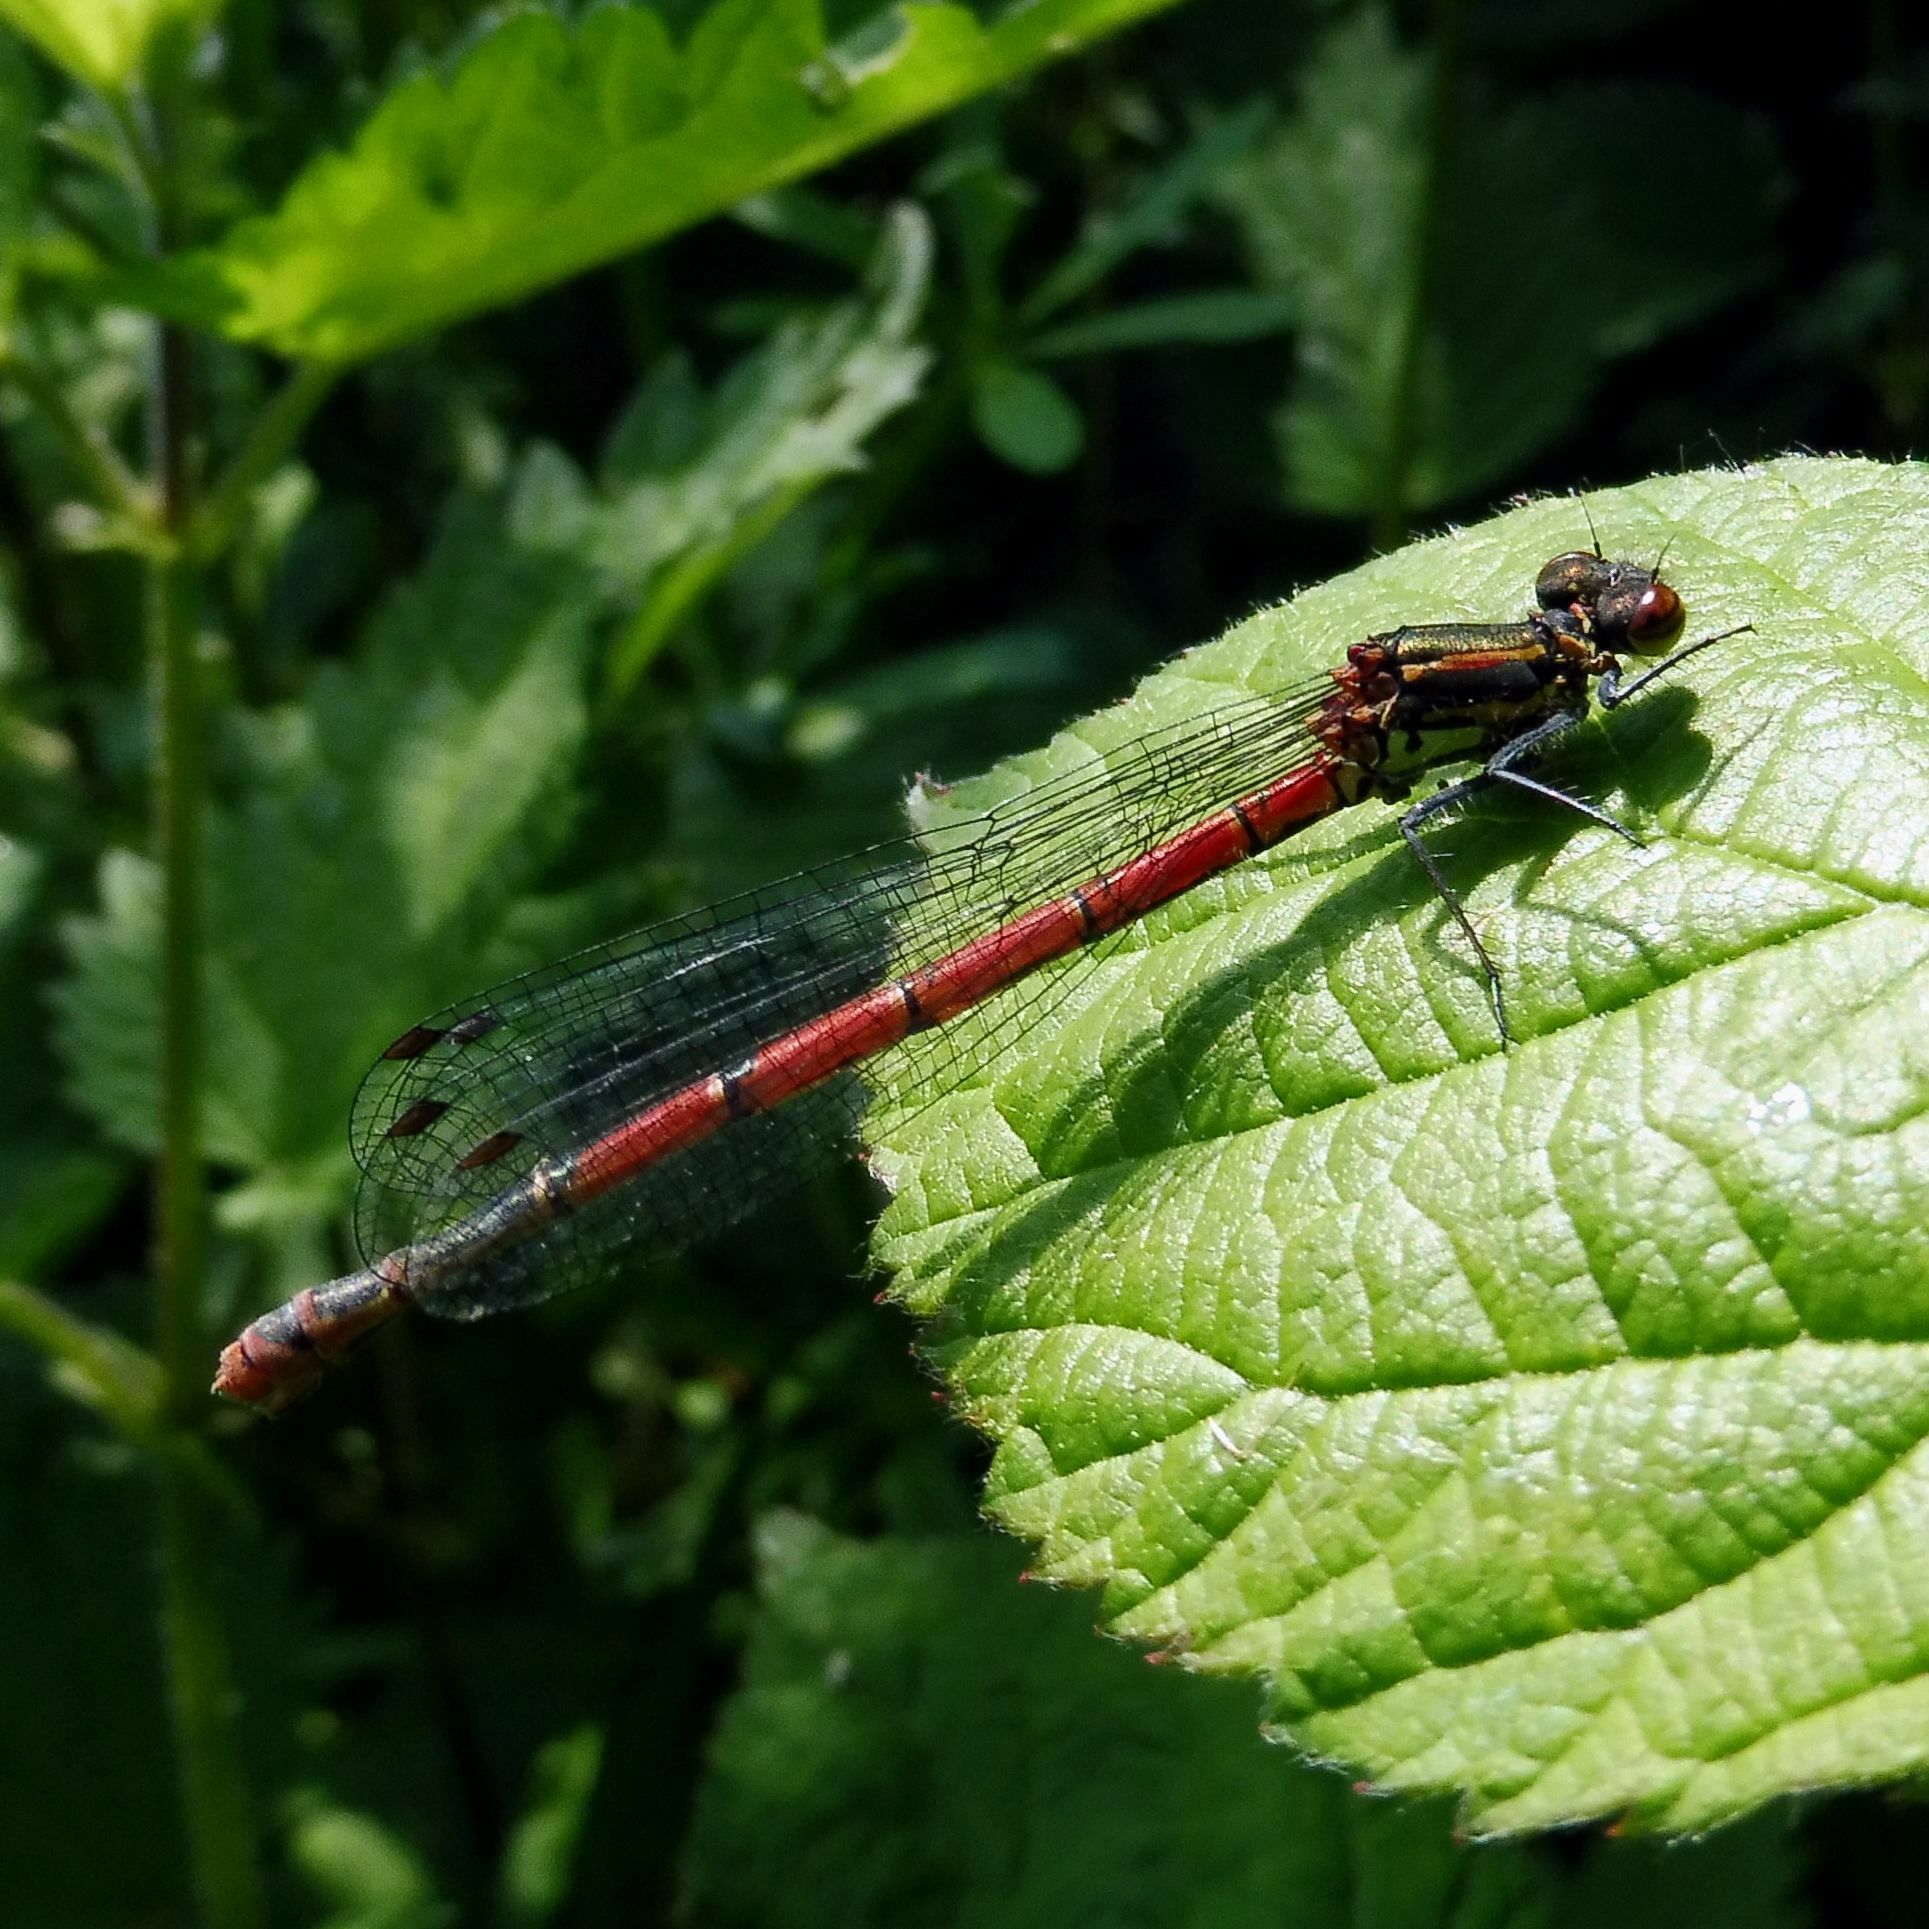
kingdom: Animalia
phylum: Arthropoda
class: Insecta
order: Odonata
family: Coenagrionidae
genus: Pyrrhosoma
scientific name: Pyrrhosoma nymphula
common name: Large red damsel
